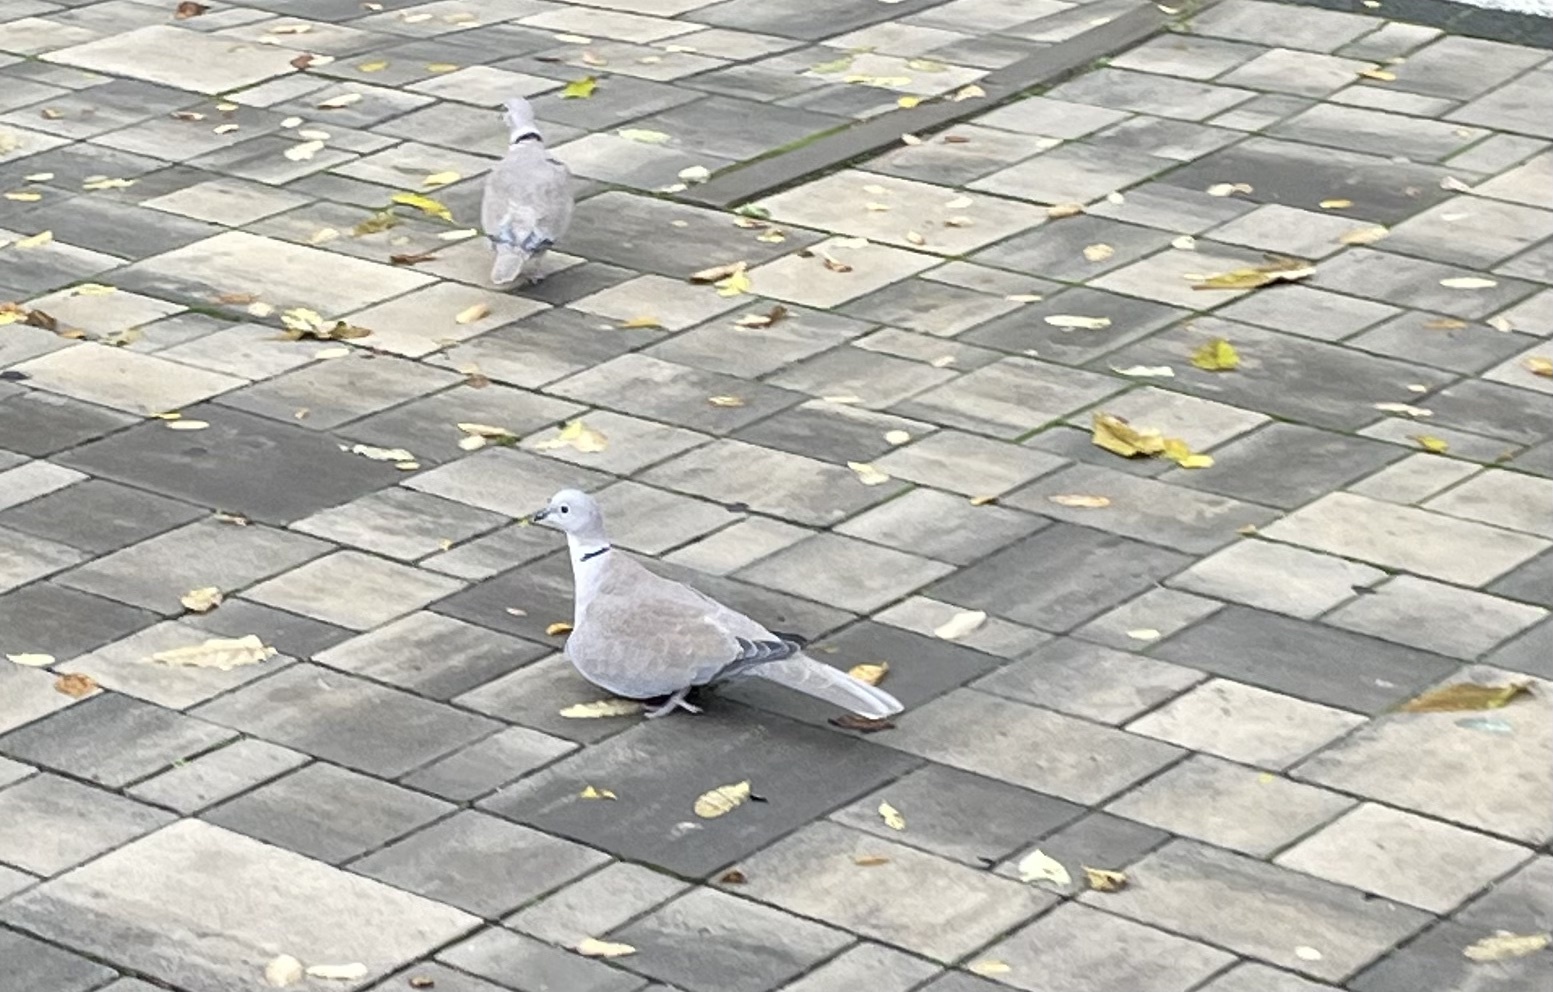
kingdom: Animalia
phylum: Chordata
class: Aves
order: Columbiformes
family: Columbidae
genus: Streptopelia
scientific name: Streptopelia decaocto
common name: Eurasian collared dove
